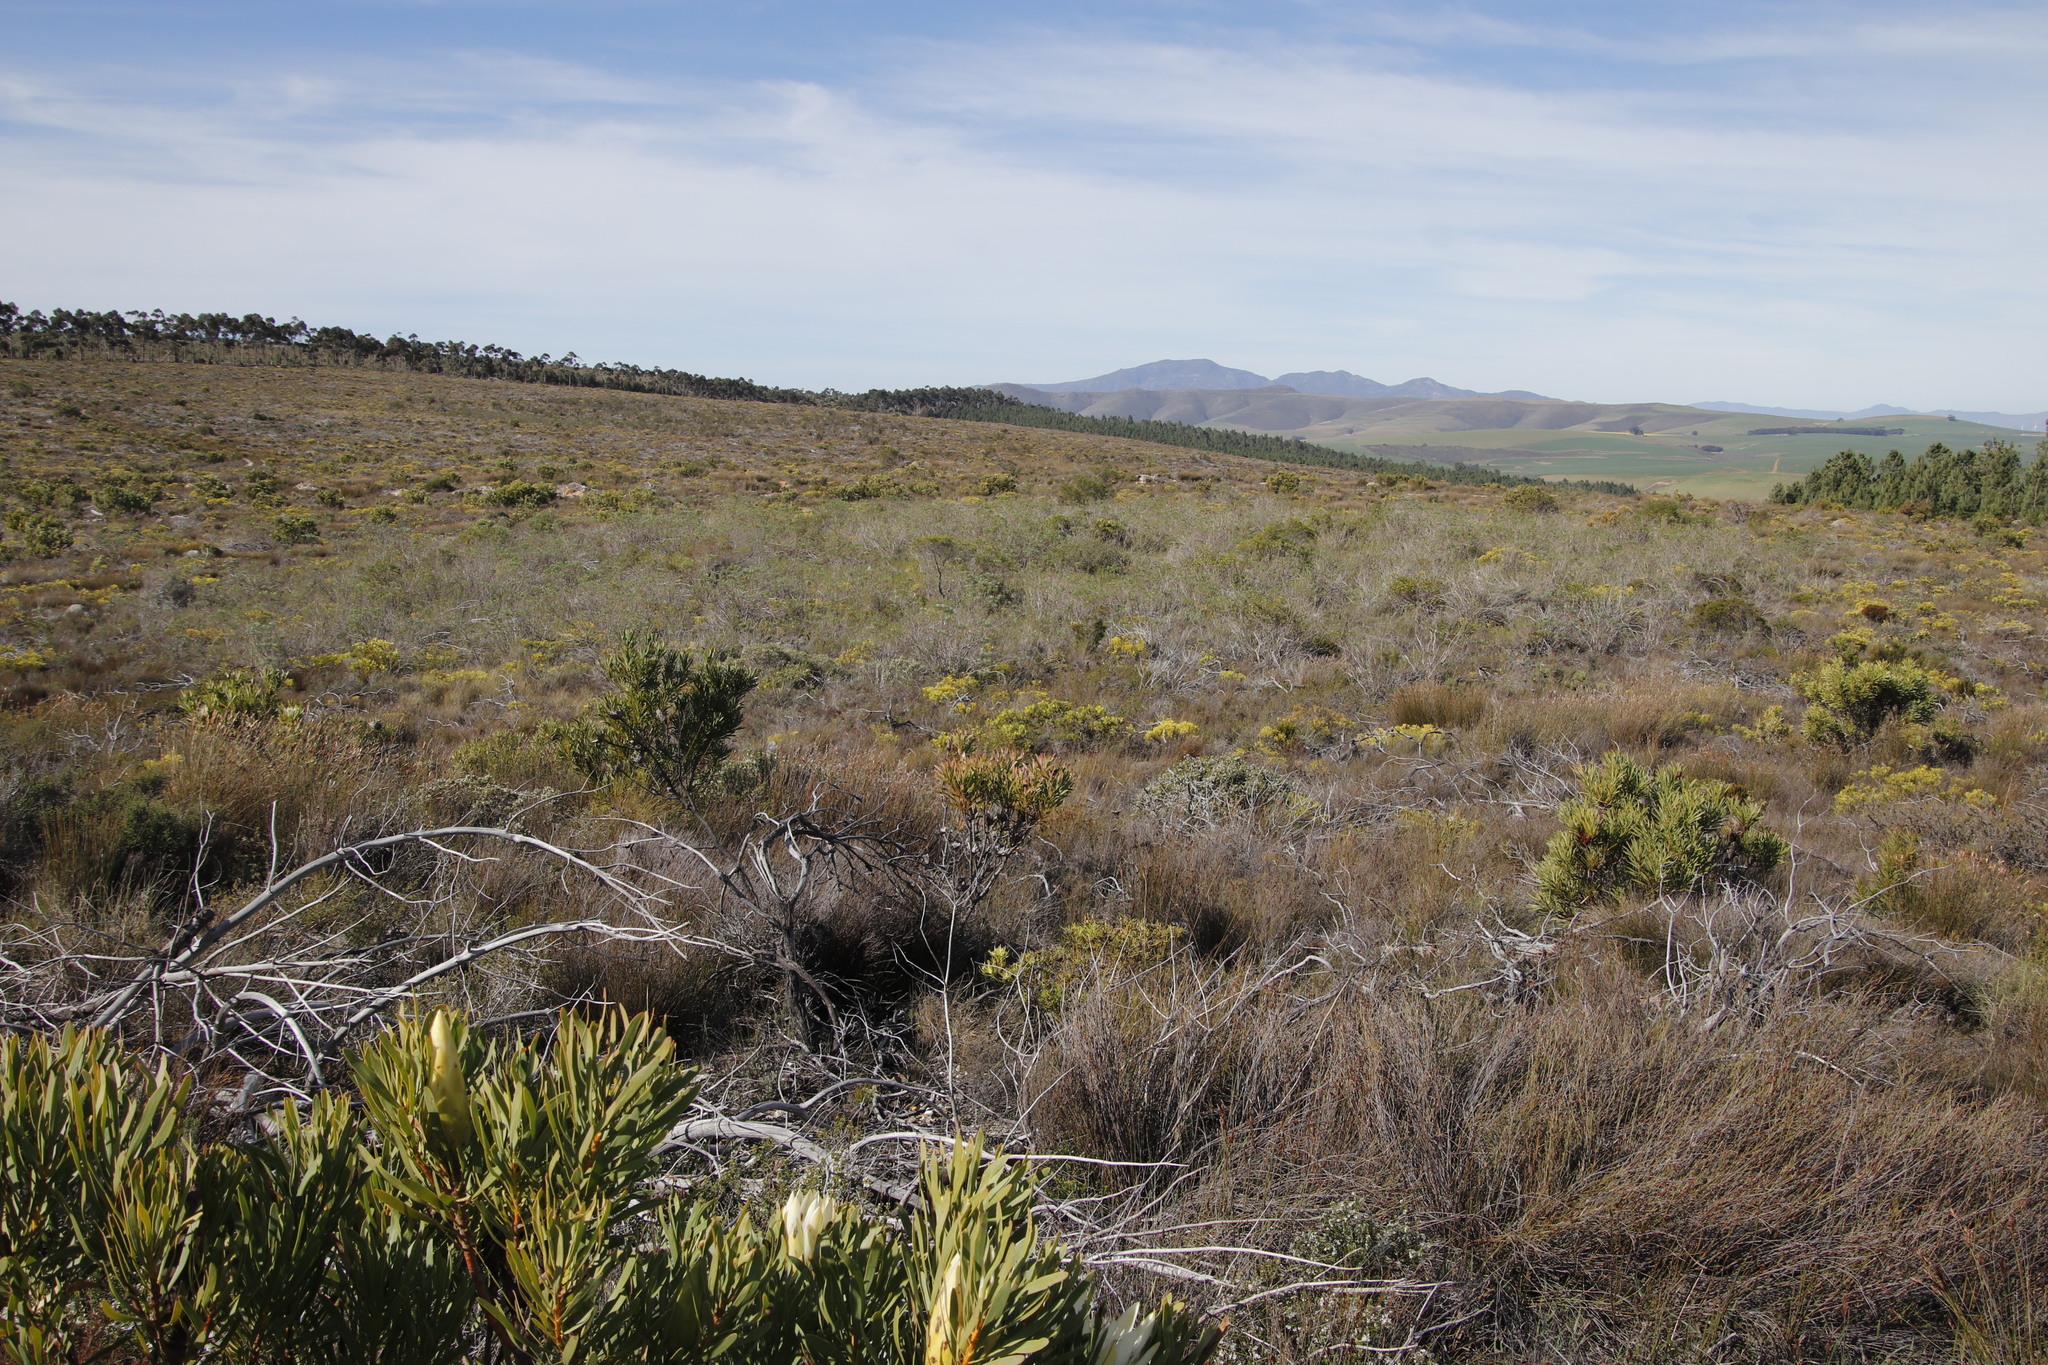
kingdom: Plantae
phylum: Tracheophyta
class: Magnoliopsida
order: Proteales
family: Proteaceae
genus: Protea
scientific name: Protea repens
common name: Sugarbush
